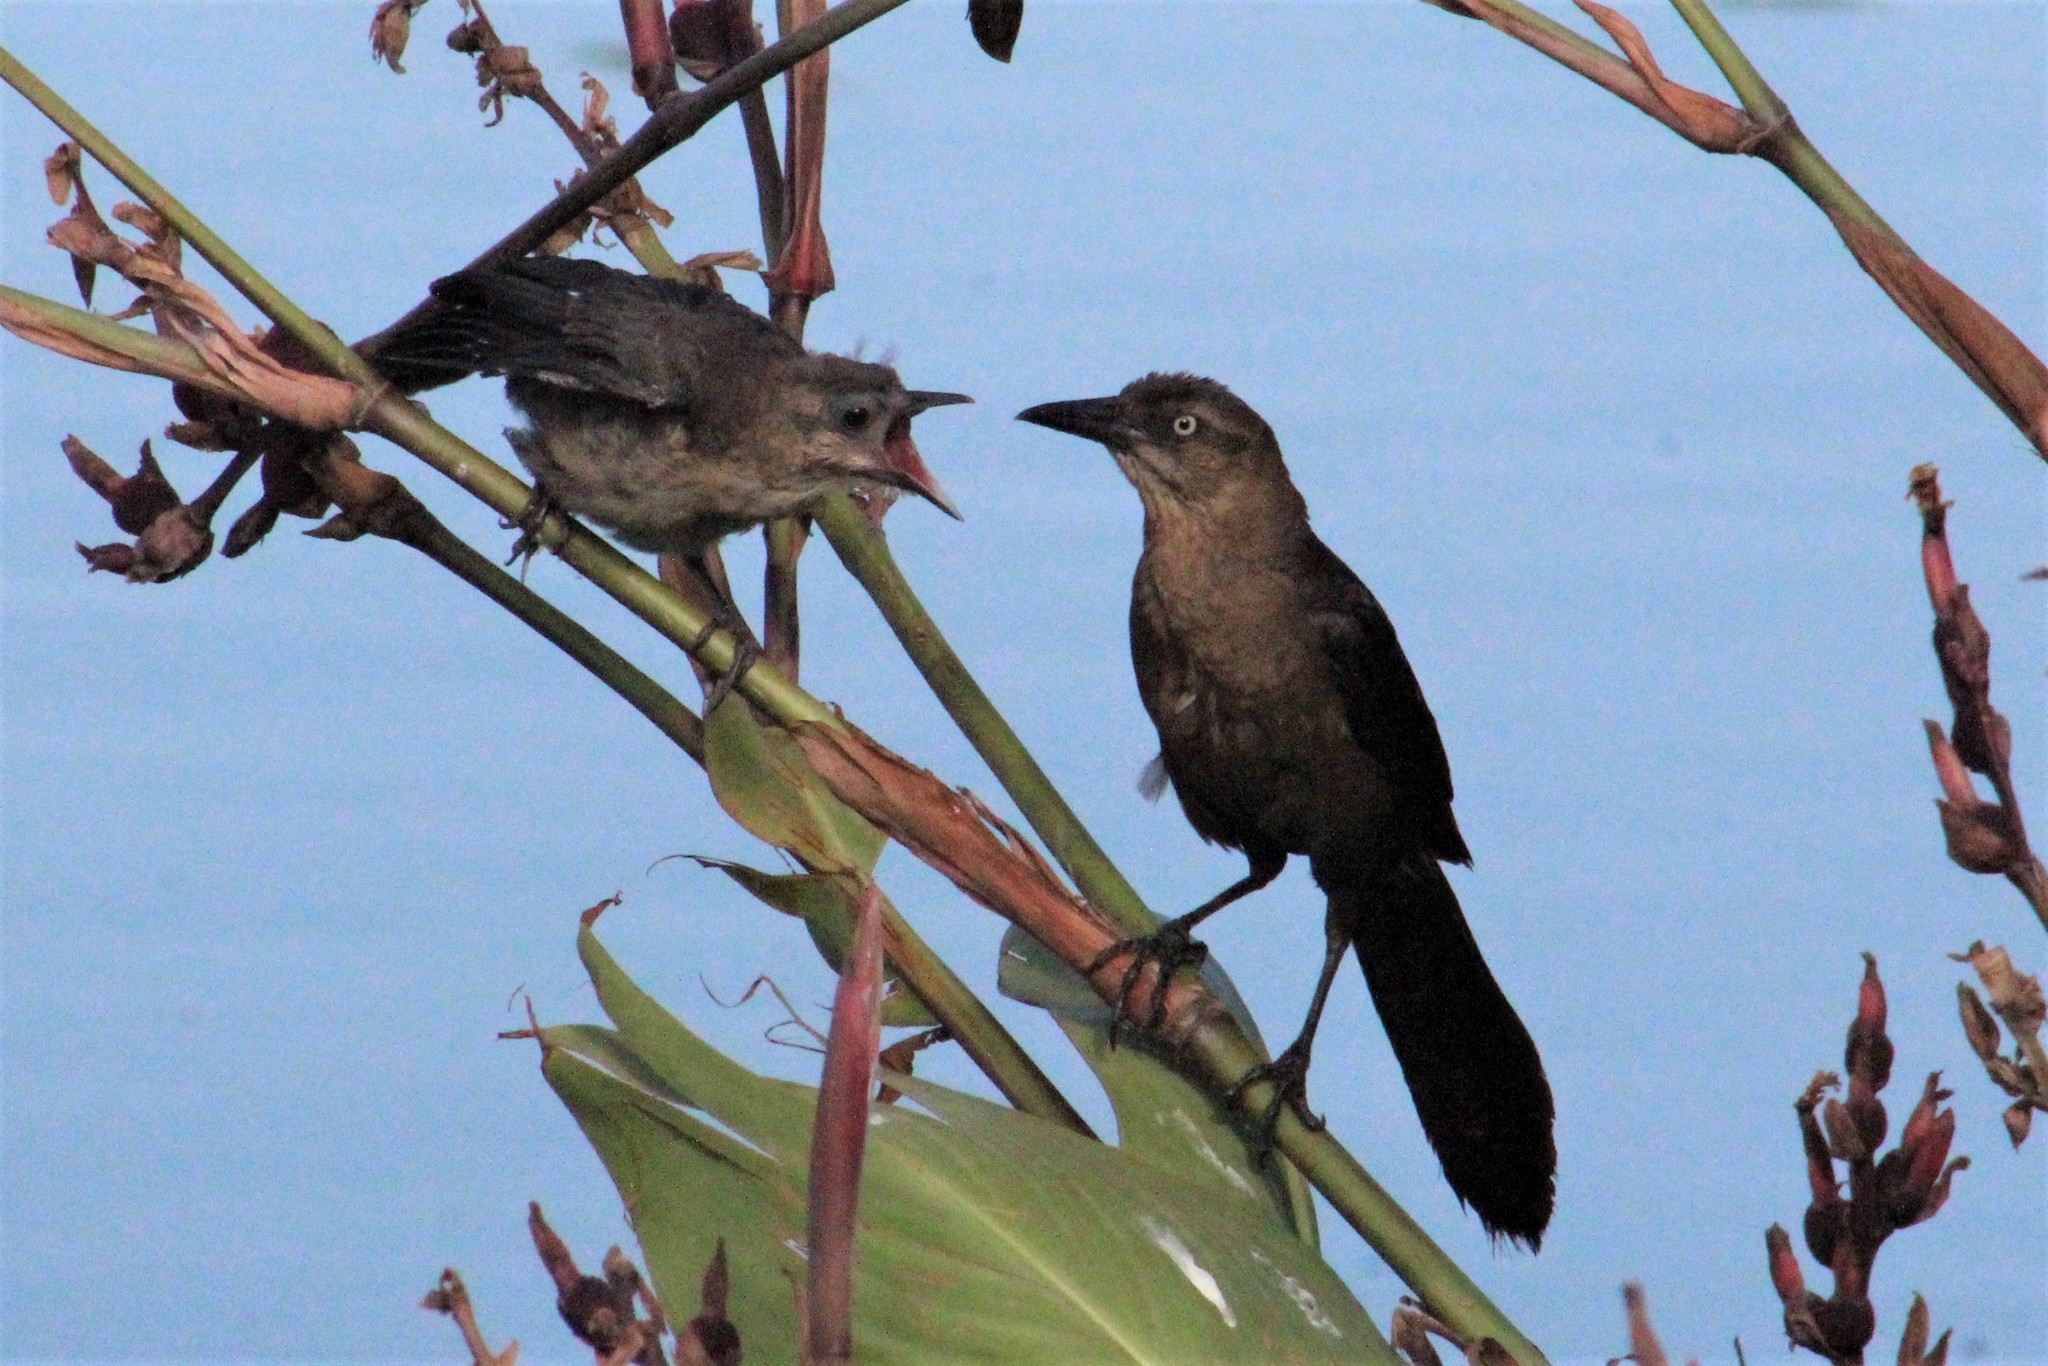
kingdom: Animalia
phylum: Chordata
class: Aves
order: Passeriformes
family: Icteridae
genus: Quiscalus
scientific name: Quiscalus mexicanus
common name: Great-tailed grackle
